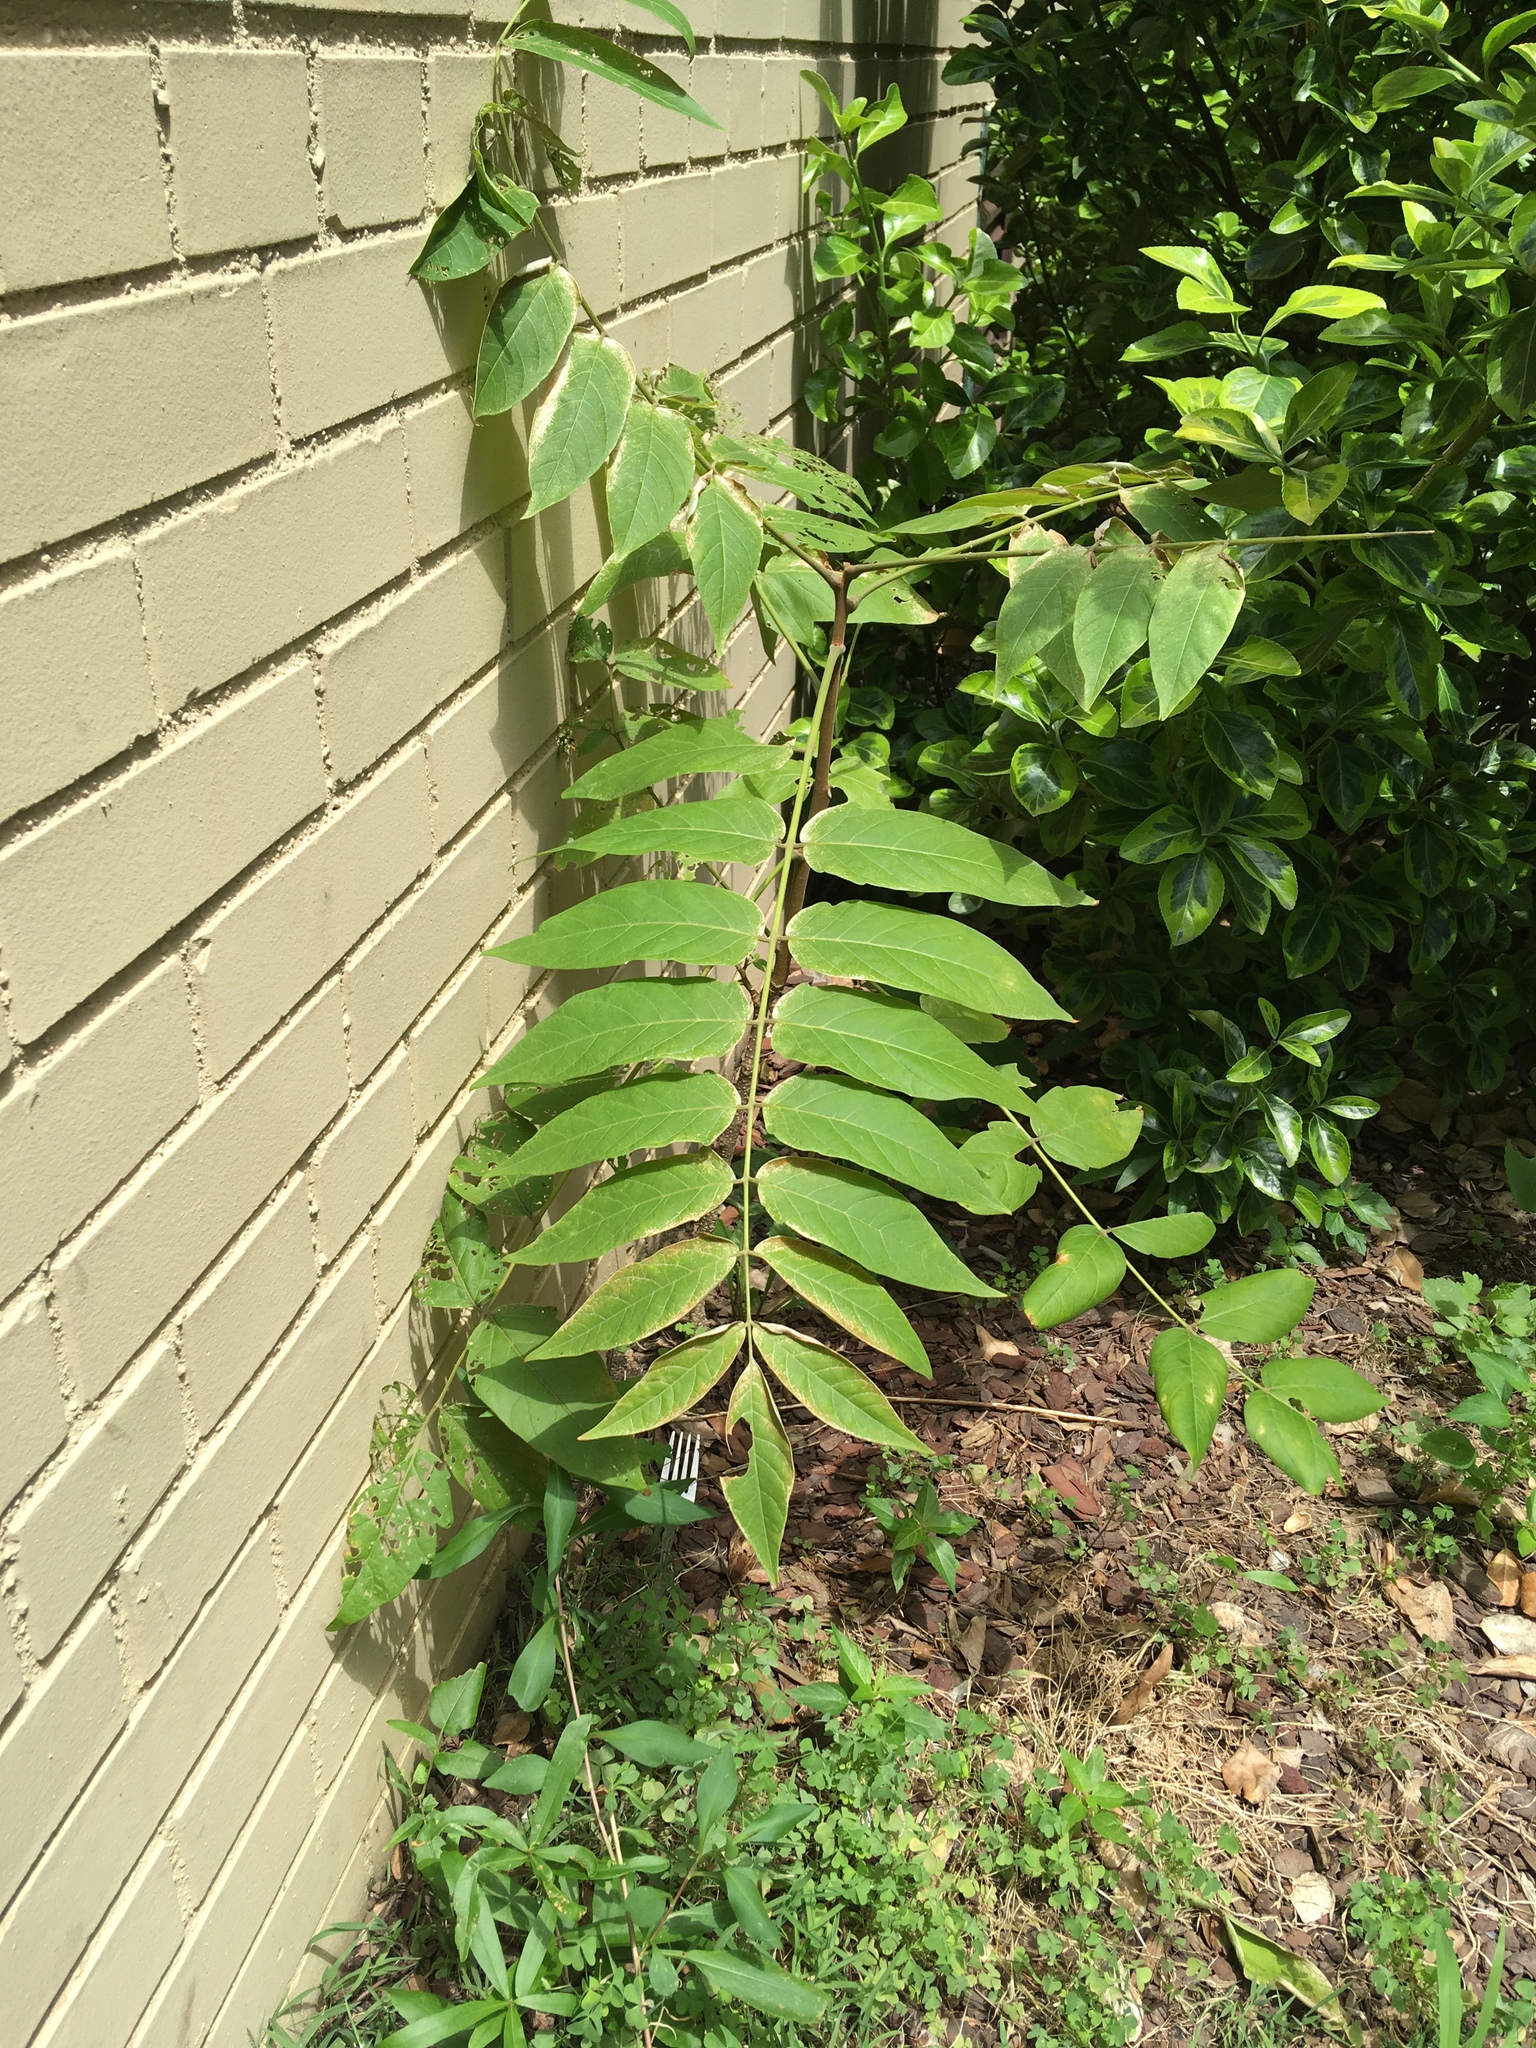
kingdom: Plantae
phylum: Tracheophyta
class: Magnoliopsida
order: Sapindales
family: Simaroubaceae
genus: Ailanthus
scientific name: Ailanthus altissima
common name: Tree-of-heaven
